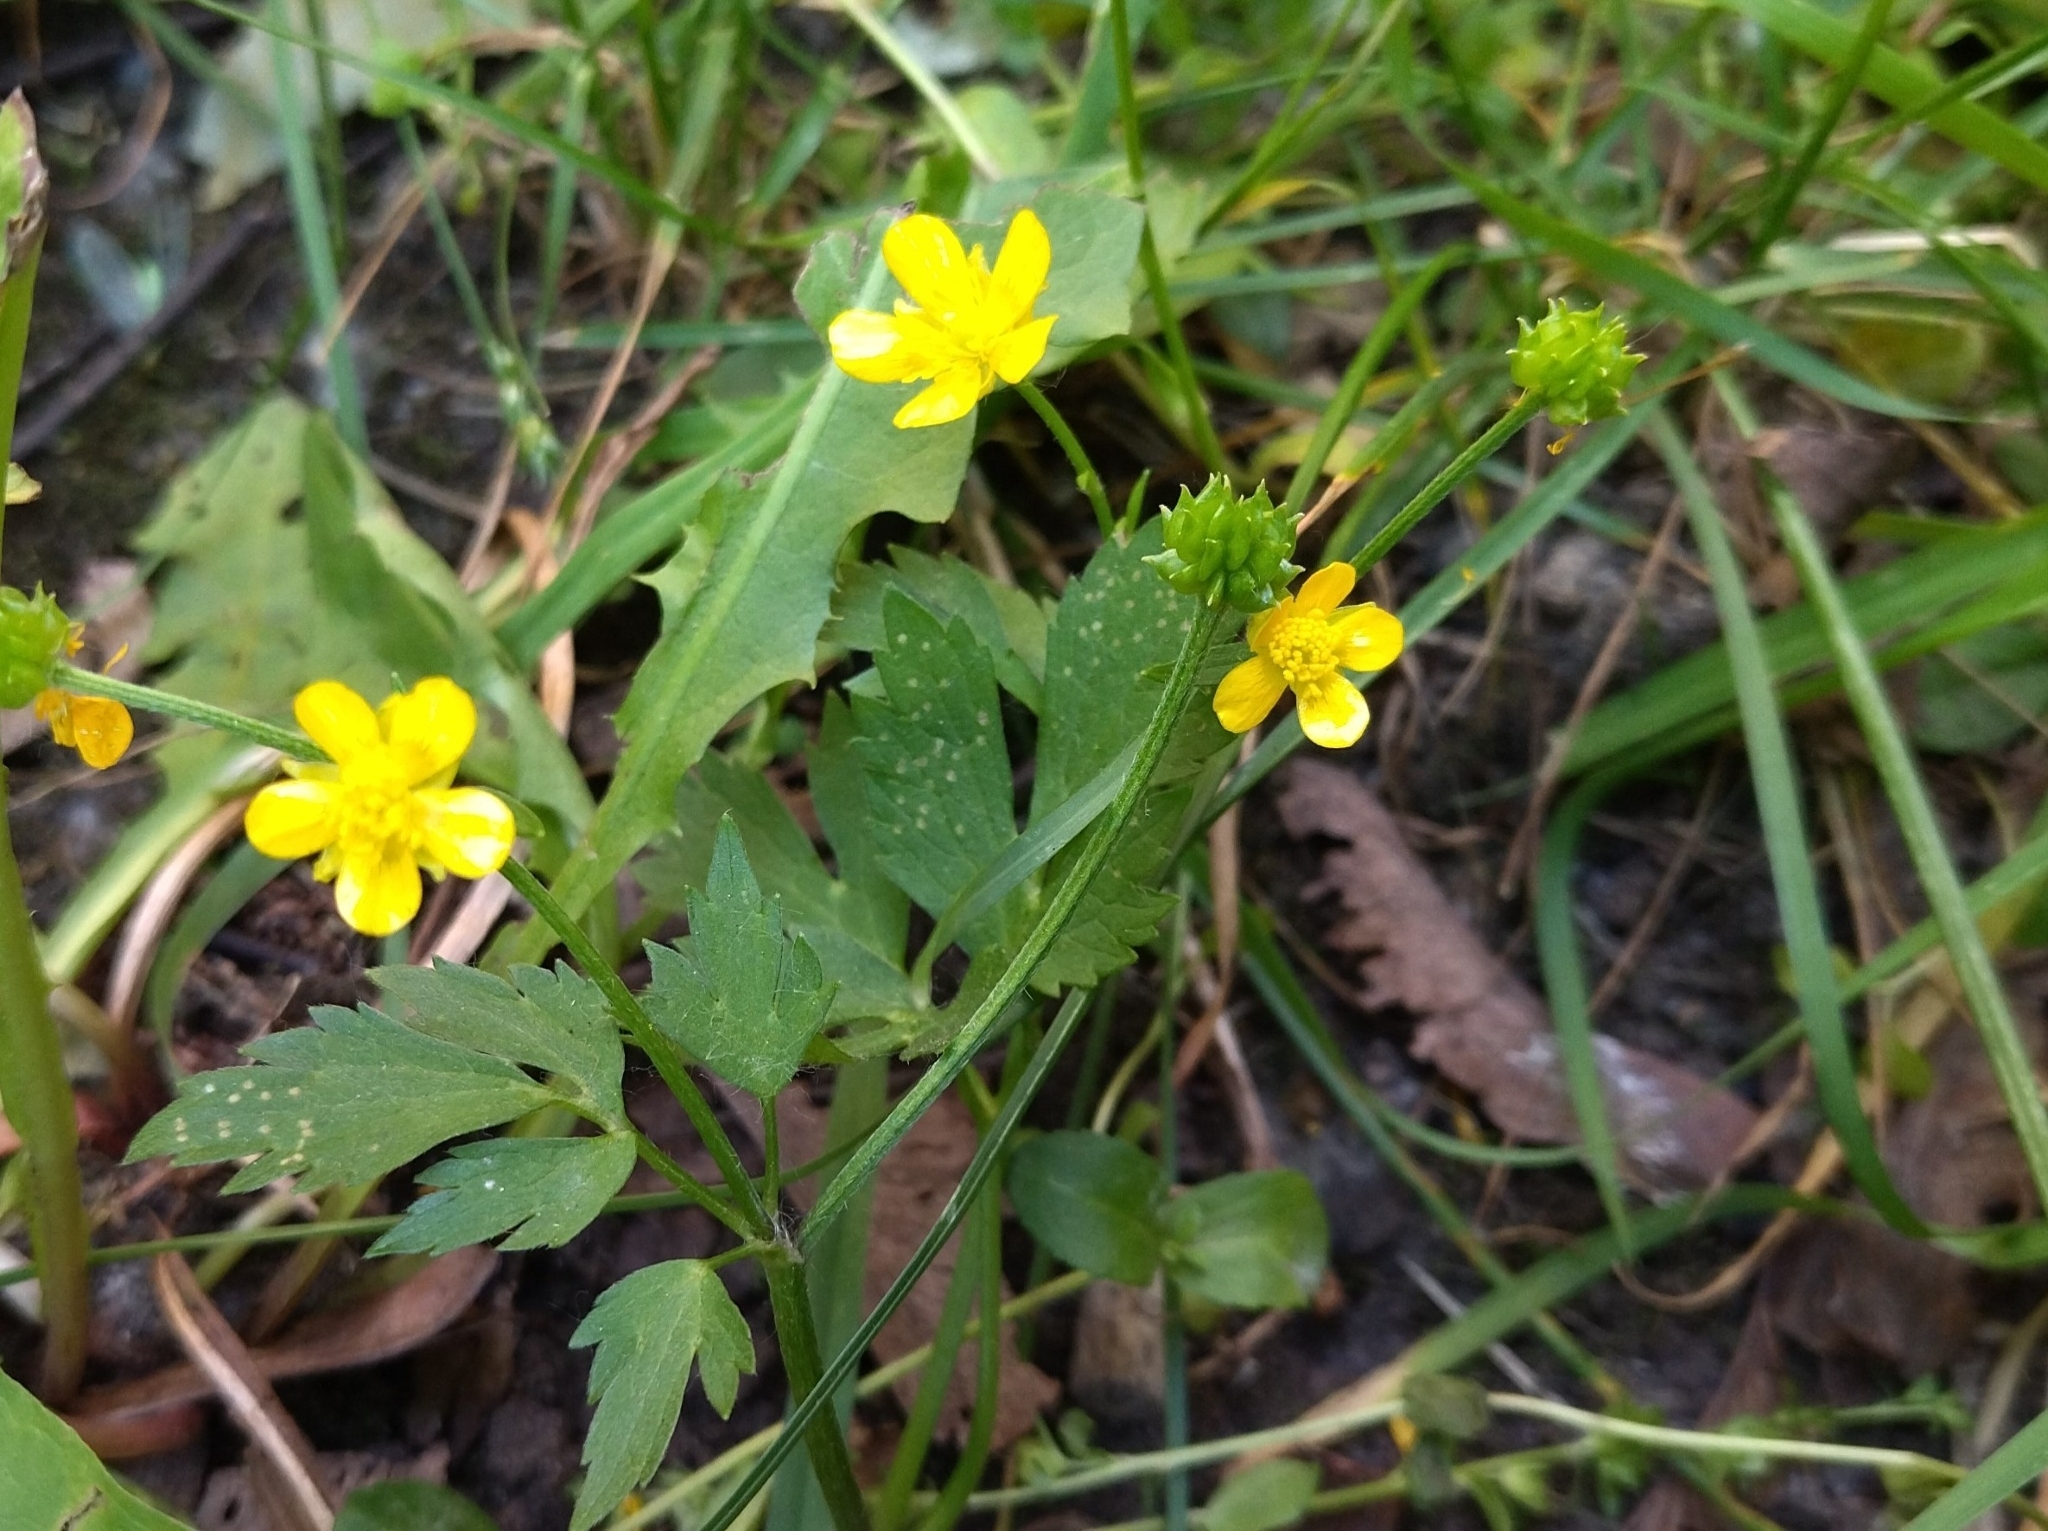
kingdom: Plantae
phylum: Tracheophyta
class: Magnoliopsida
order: Ranunculales
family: Ranunculaceae
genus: Ranunculus
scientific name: Ranunculus repens
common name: Creeping buttercup
